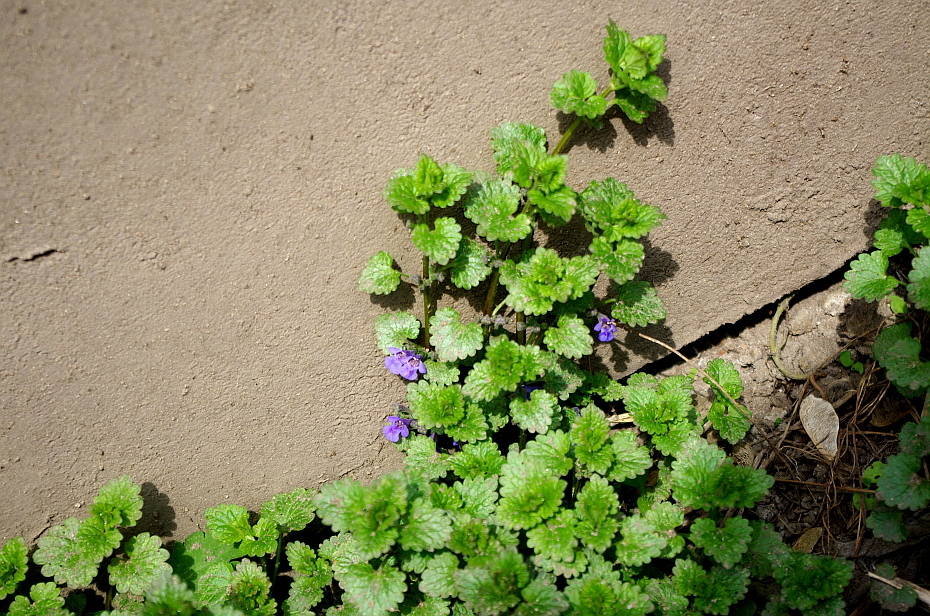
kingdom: Plantae
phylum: Tracheophyta
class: Magnoliopsida
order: Lamiales
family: Lamiaceae
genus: Glechoma
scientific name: Glechoma hederacea
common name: Ground ivy
